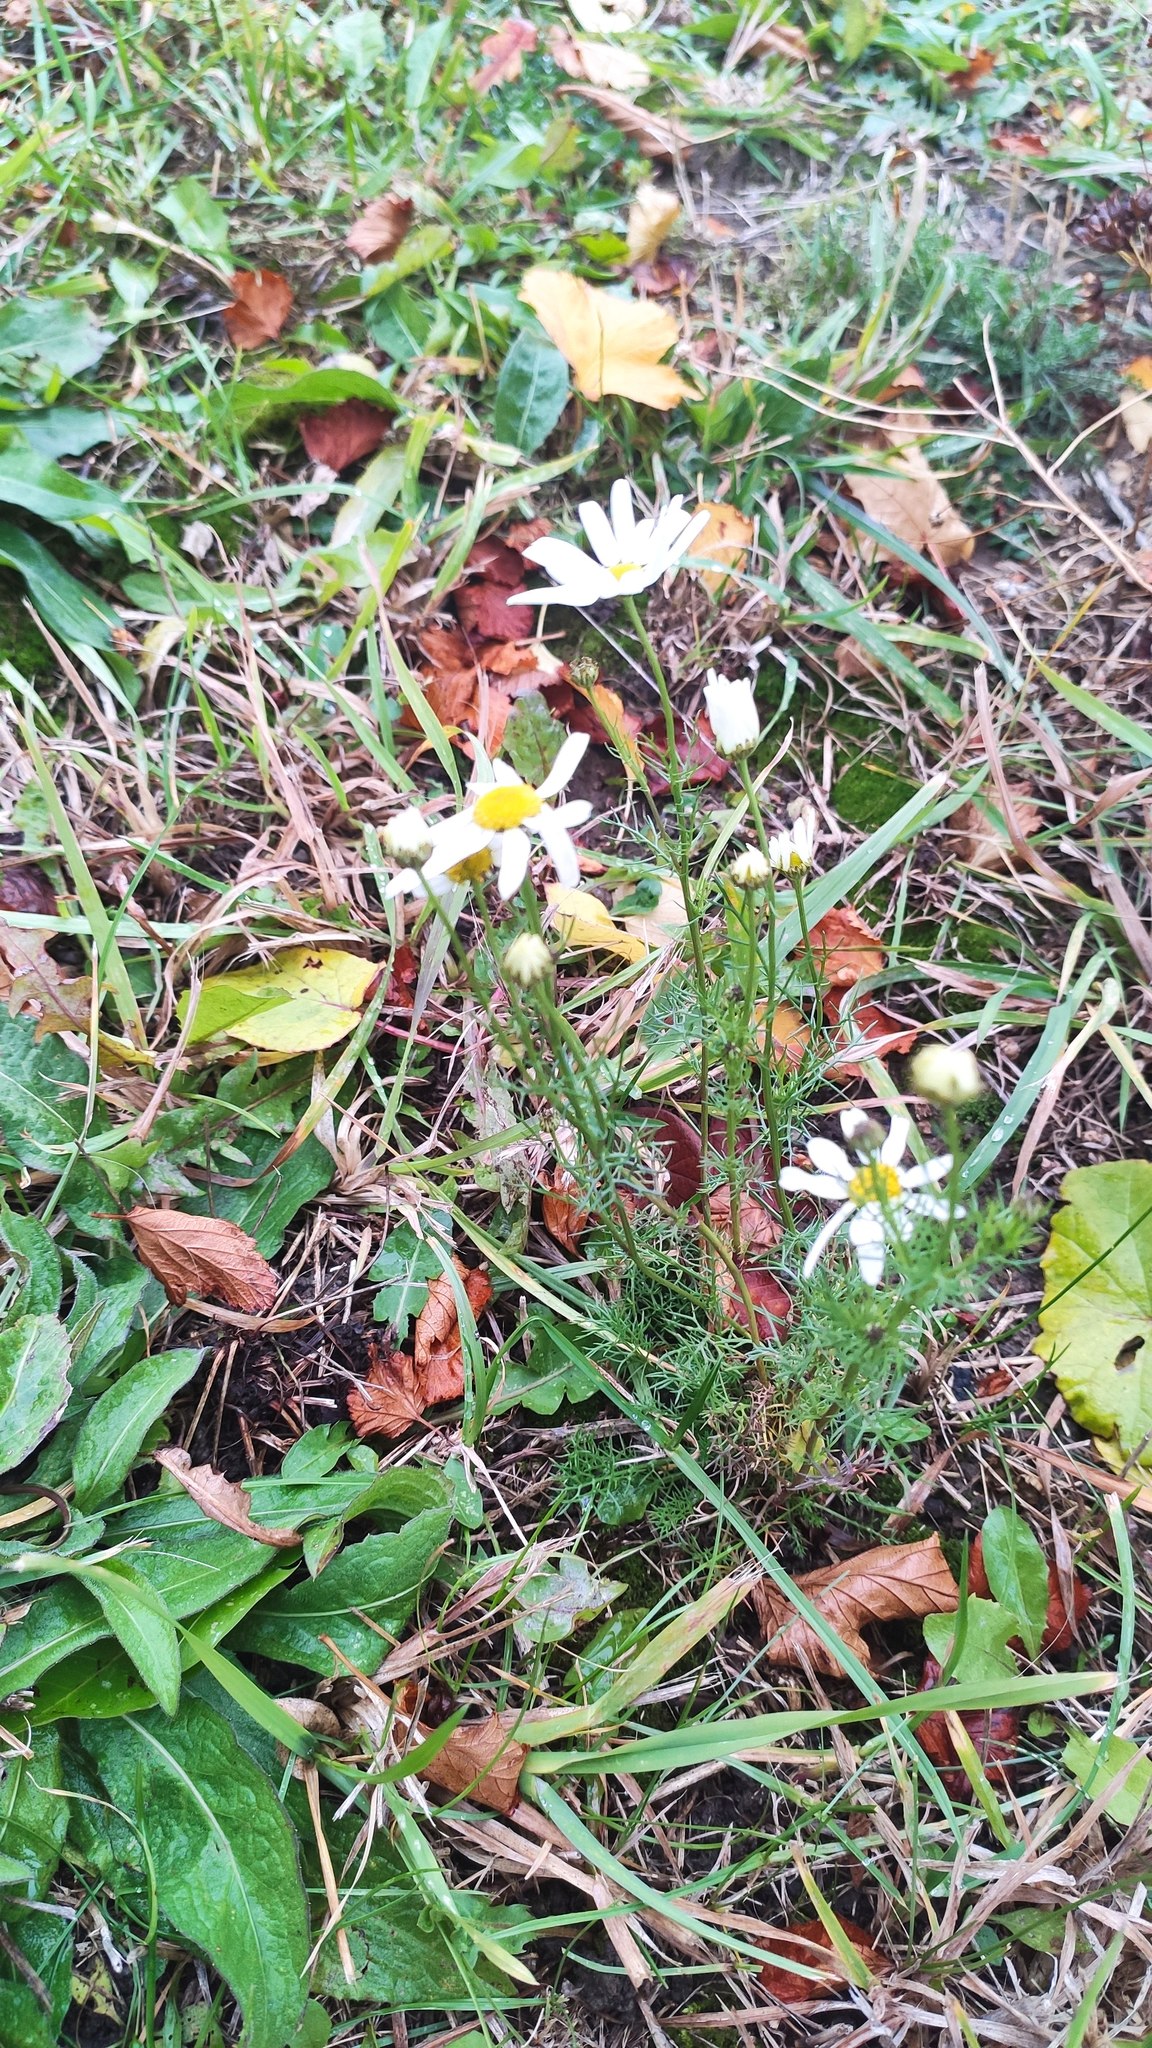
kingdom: Plantae
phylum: Tracheophyta
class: Magnoliopsida
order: Asterales
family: Asteraceae
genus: Tripleurospermum
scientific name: Tripleurospermum inodorum
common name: Scentless mayweed
